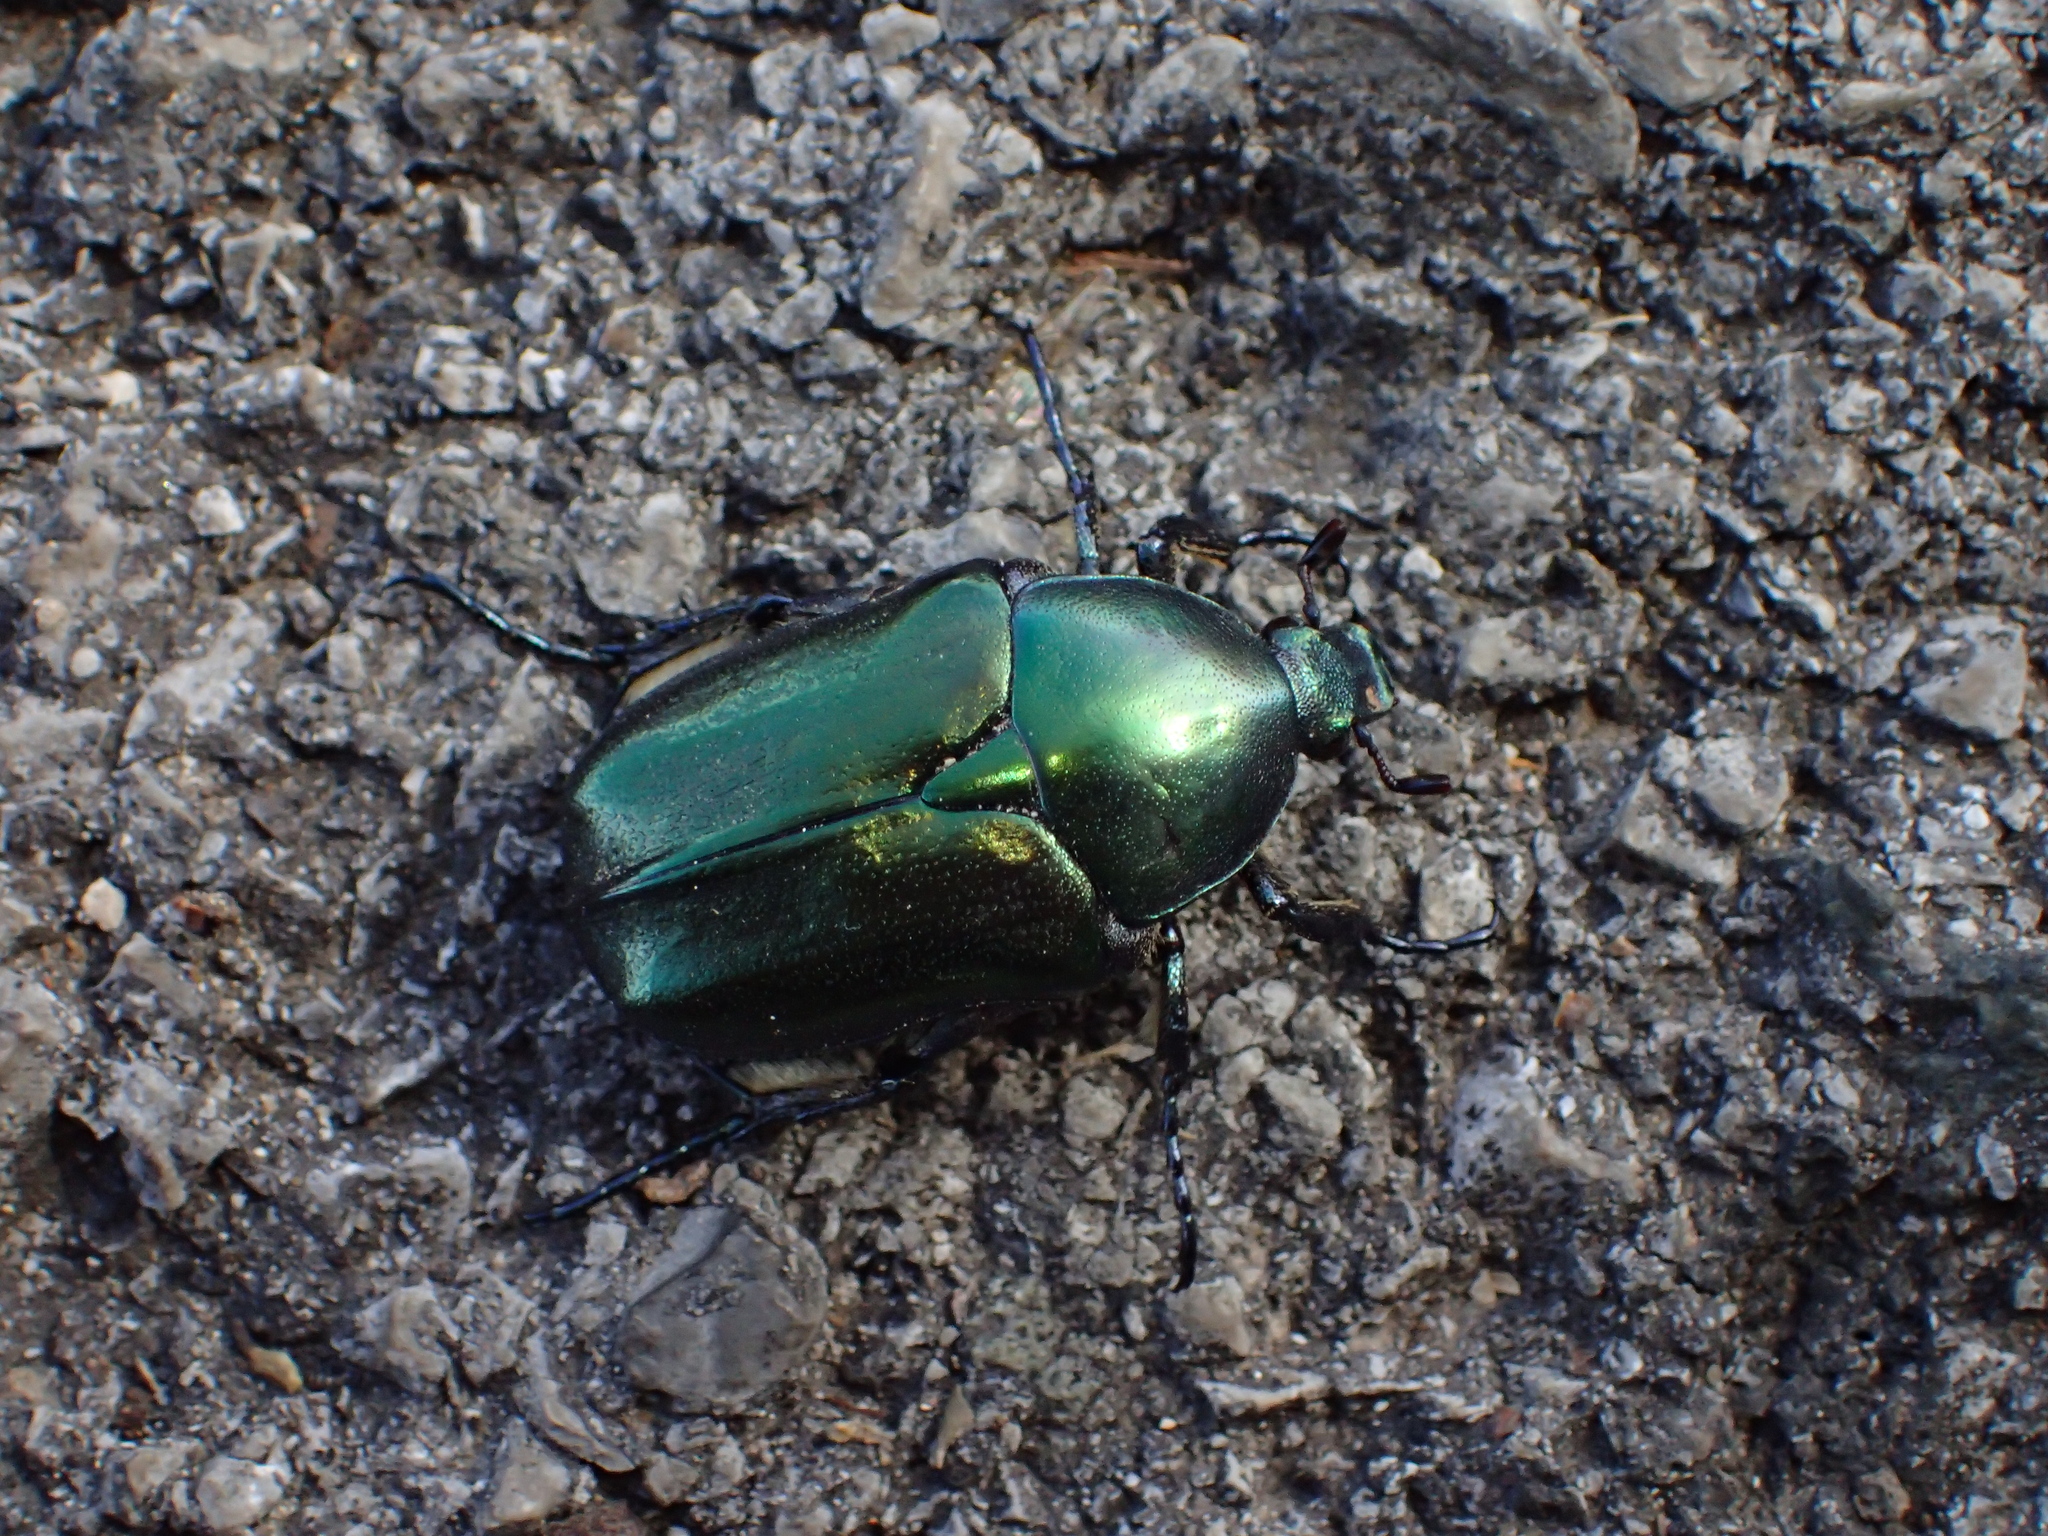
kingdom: Animalia
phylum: Arthropoda
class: Insecta
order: Coleoptera
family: Scarabaeidae
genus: Protaetia
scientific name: Protaetia angustata
